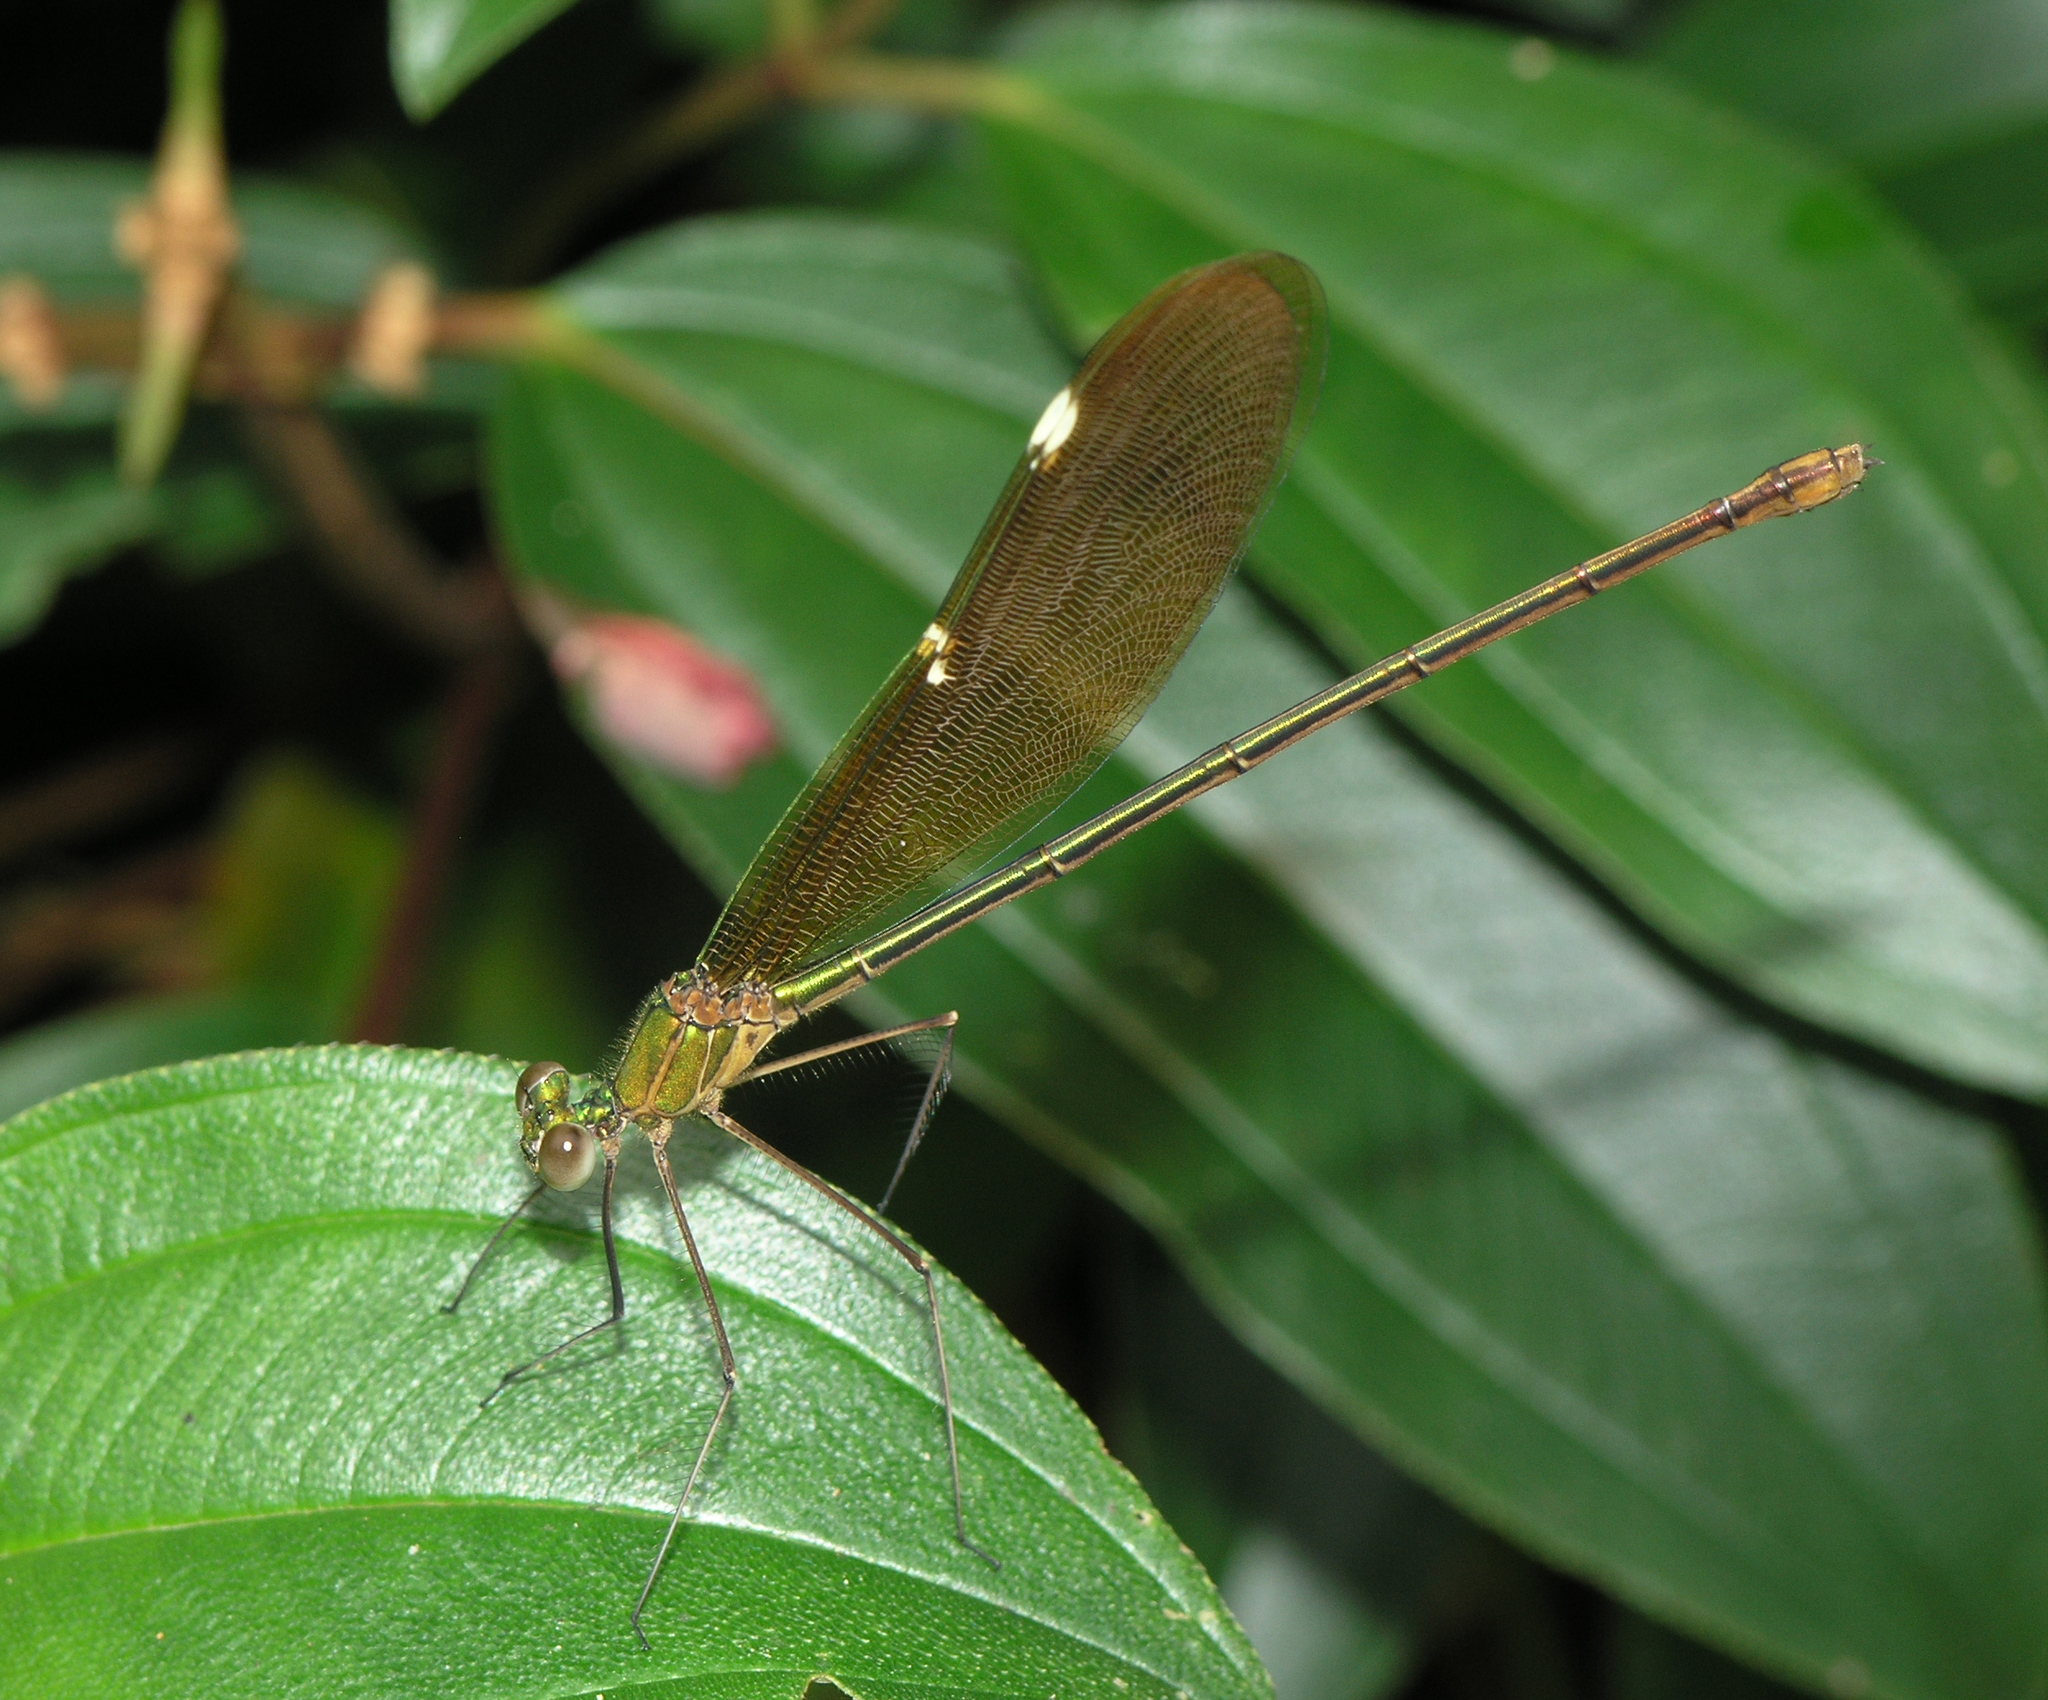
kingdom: Animalia
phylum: Arthropoda
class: Insecta
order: Odonata
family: Calopterygidae
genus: Neurobasis
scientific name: Neurobasis chinensis
